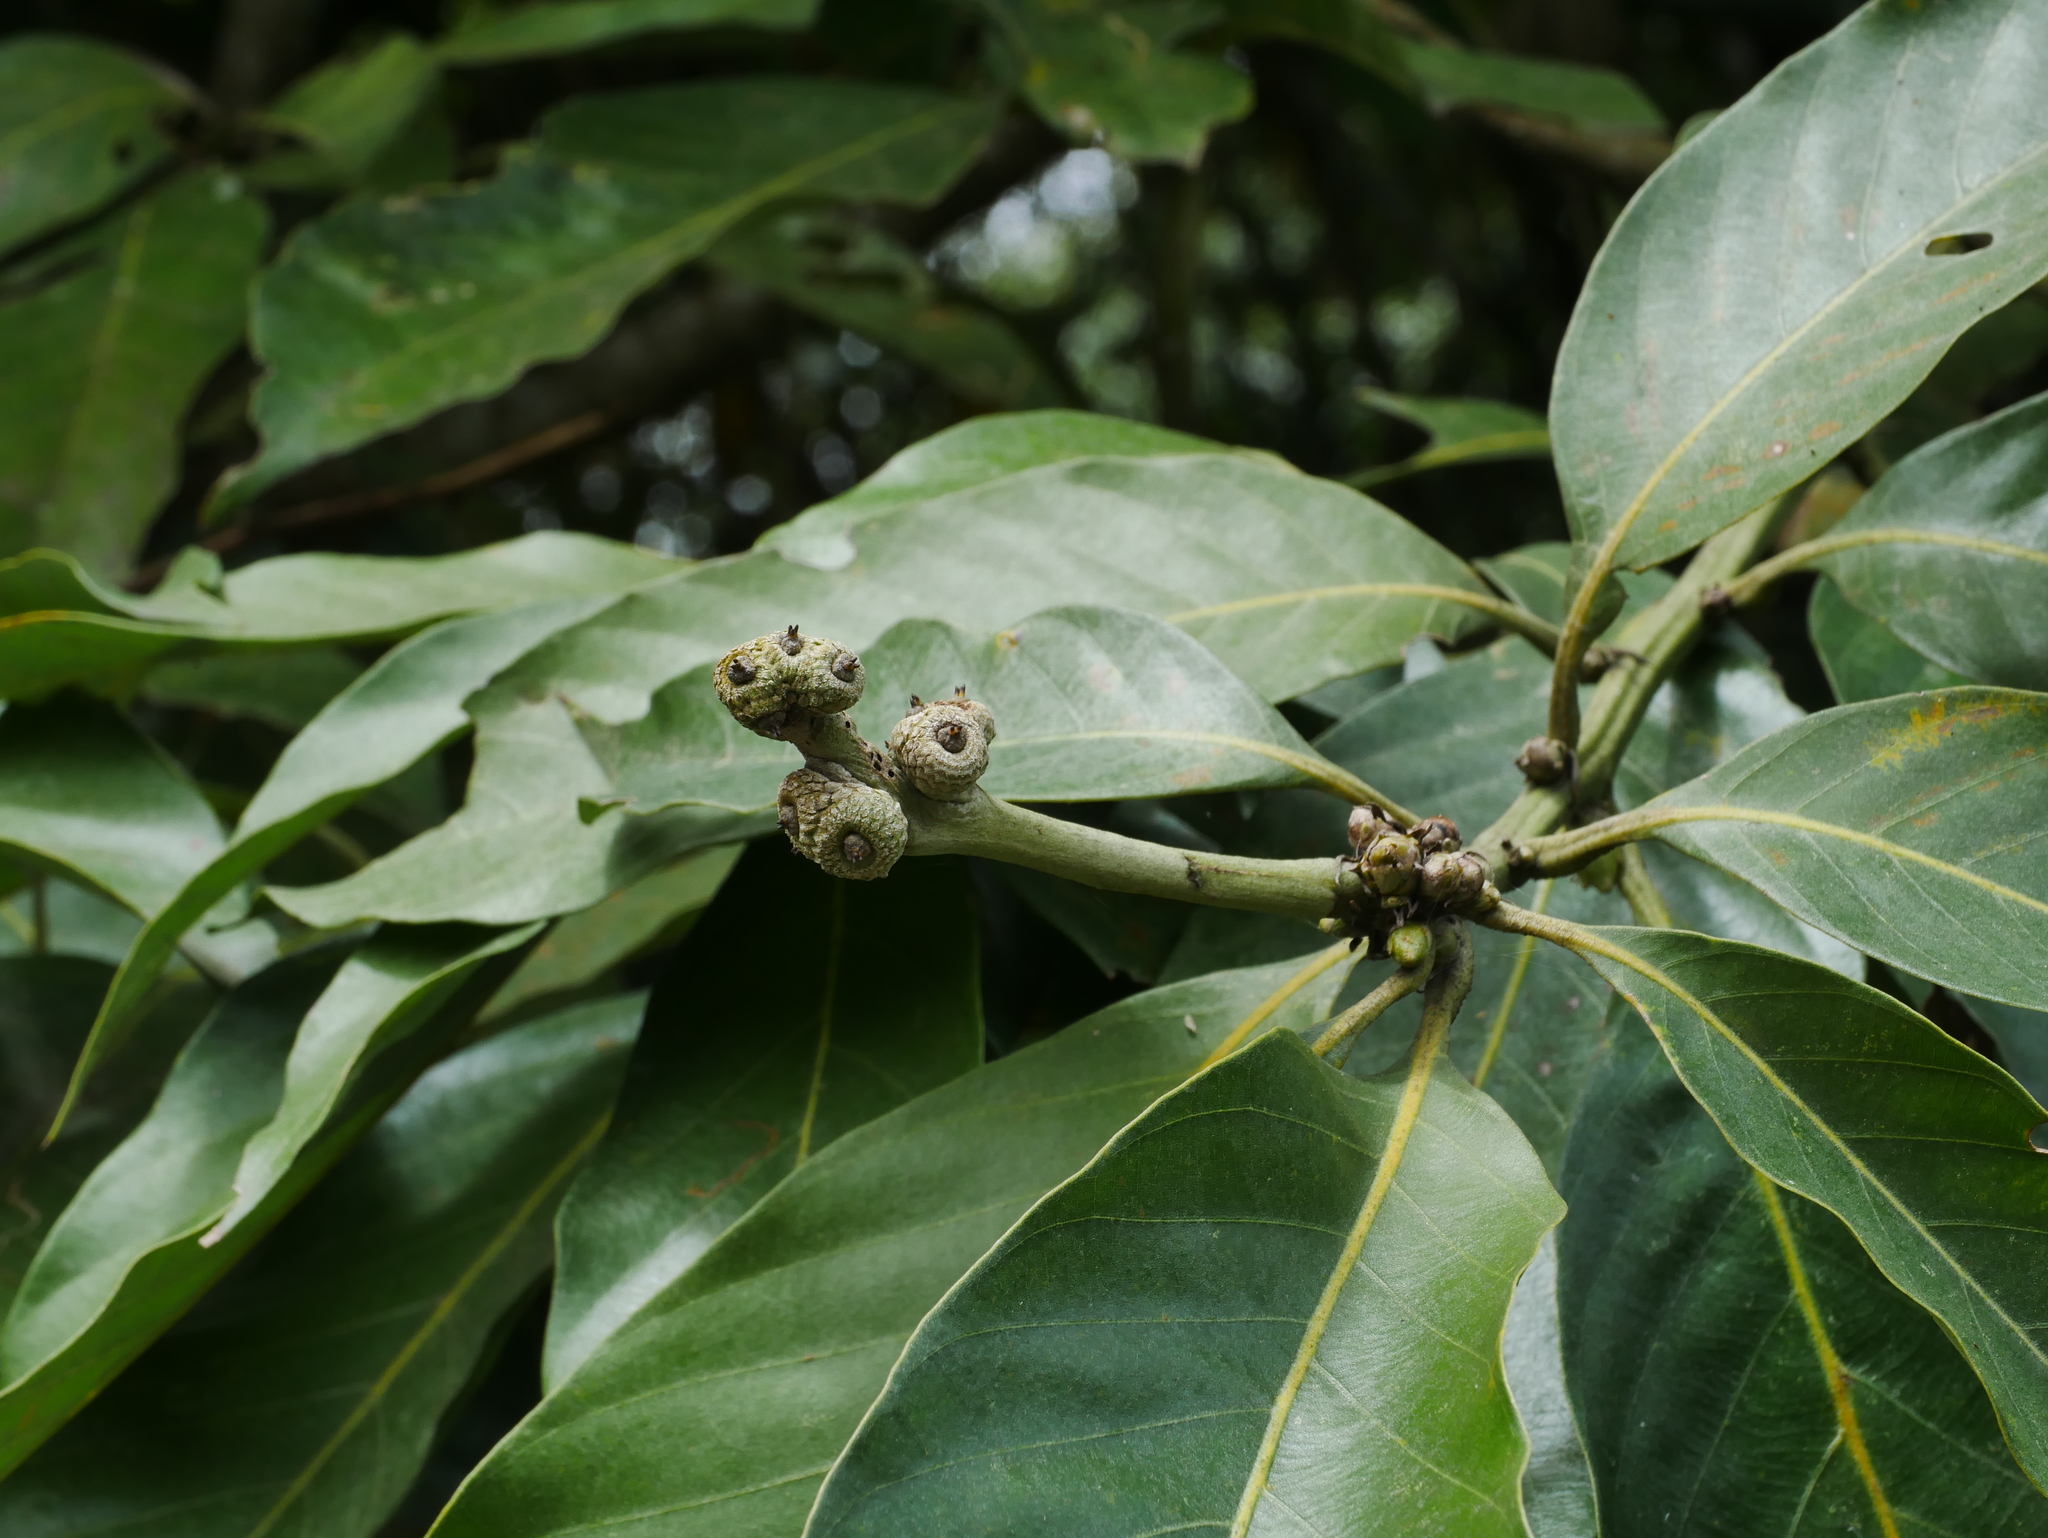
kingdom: Plantae
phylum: Tracheophyta
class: Magnoliopsida
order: Fagales
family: Fagaceae
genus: Lithocarpus
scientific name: Lithocarpus lepidocarpus
